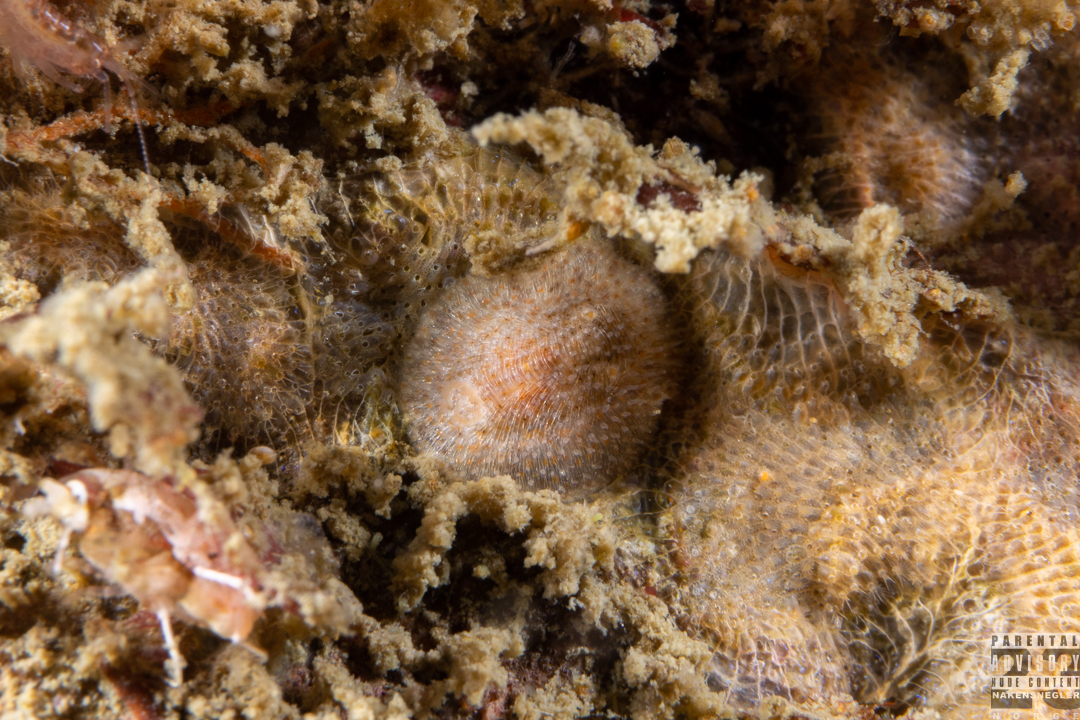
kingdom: Animalia
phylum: Mollusca
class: Gastropoda
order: Nudibranchia
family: Onchidorididae
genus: Idaliadoris
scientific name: Idaliadoris depressa
